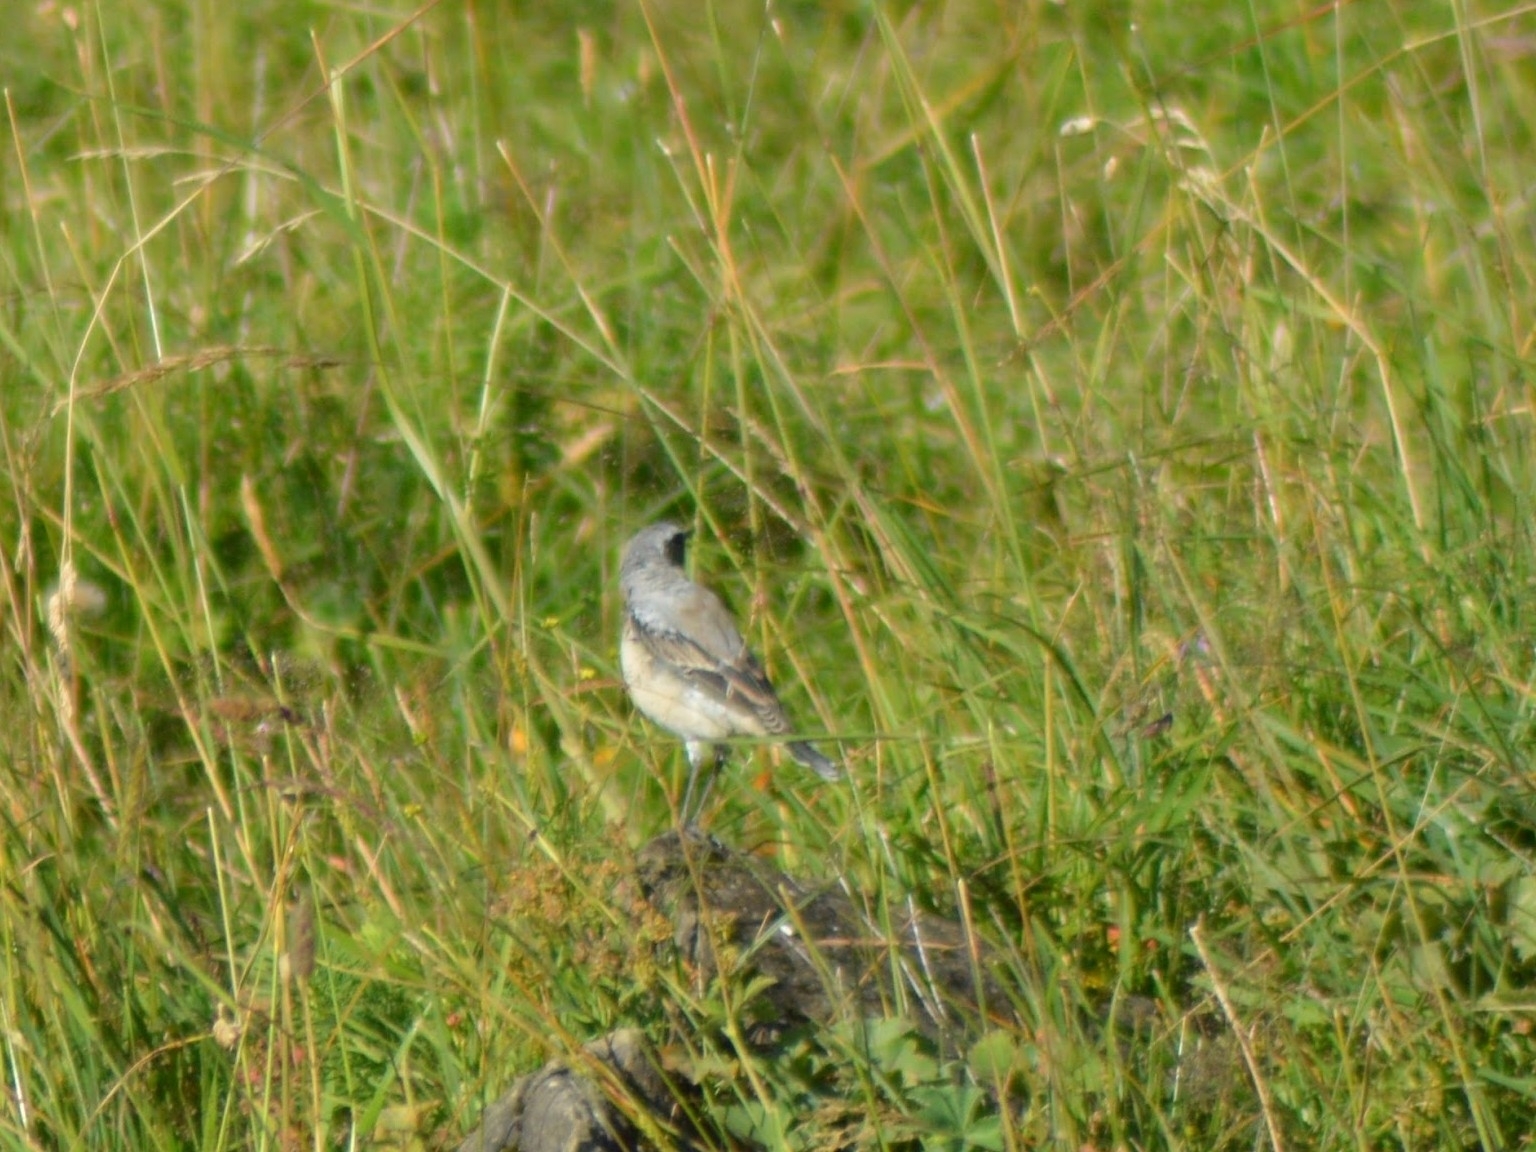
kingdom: Animalia
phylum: Chordata
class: Aves
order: Passeriformes
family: Muscicapidae
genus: Oenanthe
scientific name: Oenanthe oenanthe
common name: Northern wheatear
